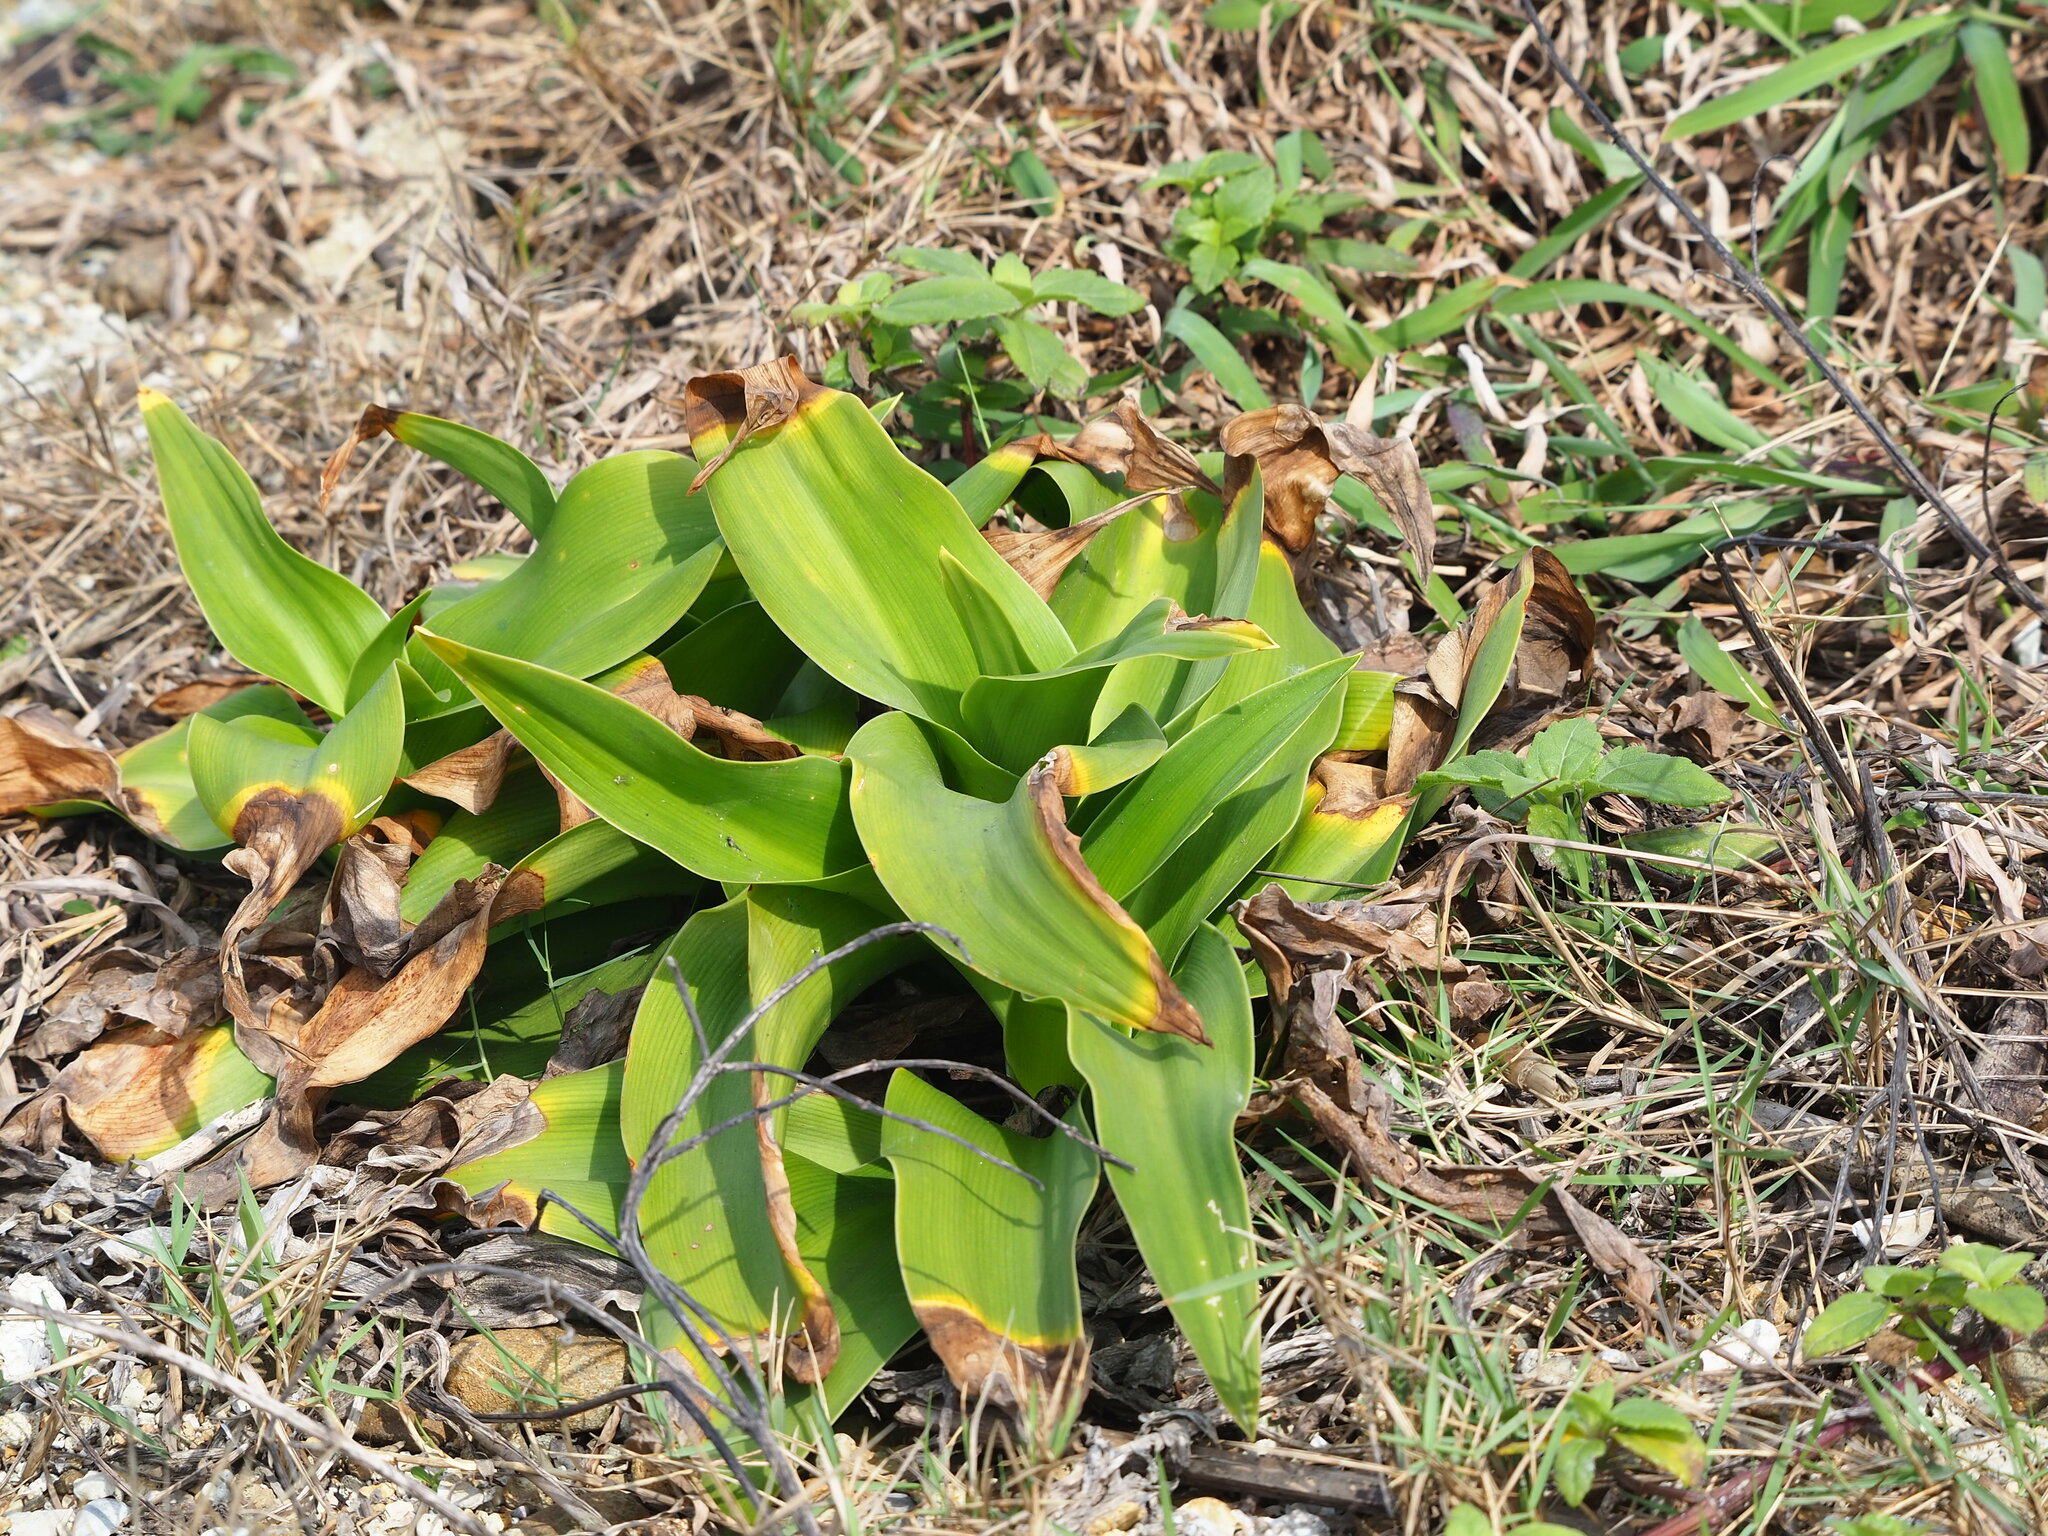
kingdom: Plantae
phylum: Tracheophyta
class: Liliopsida
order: Asparagales
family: Amaryllidaceae
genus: Crinum
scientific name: Crinum asiaticum
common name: Poisonbulb
